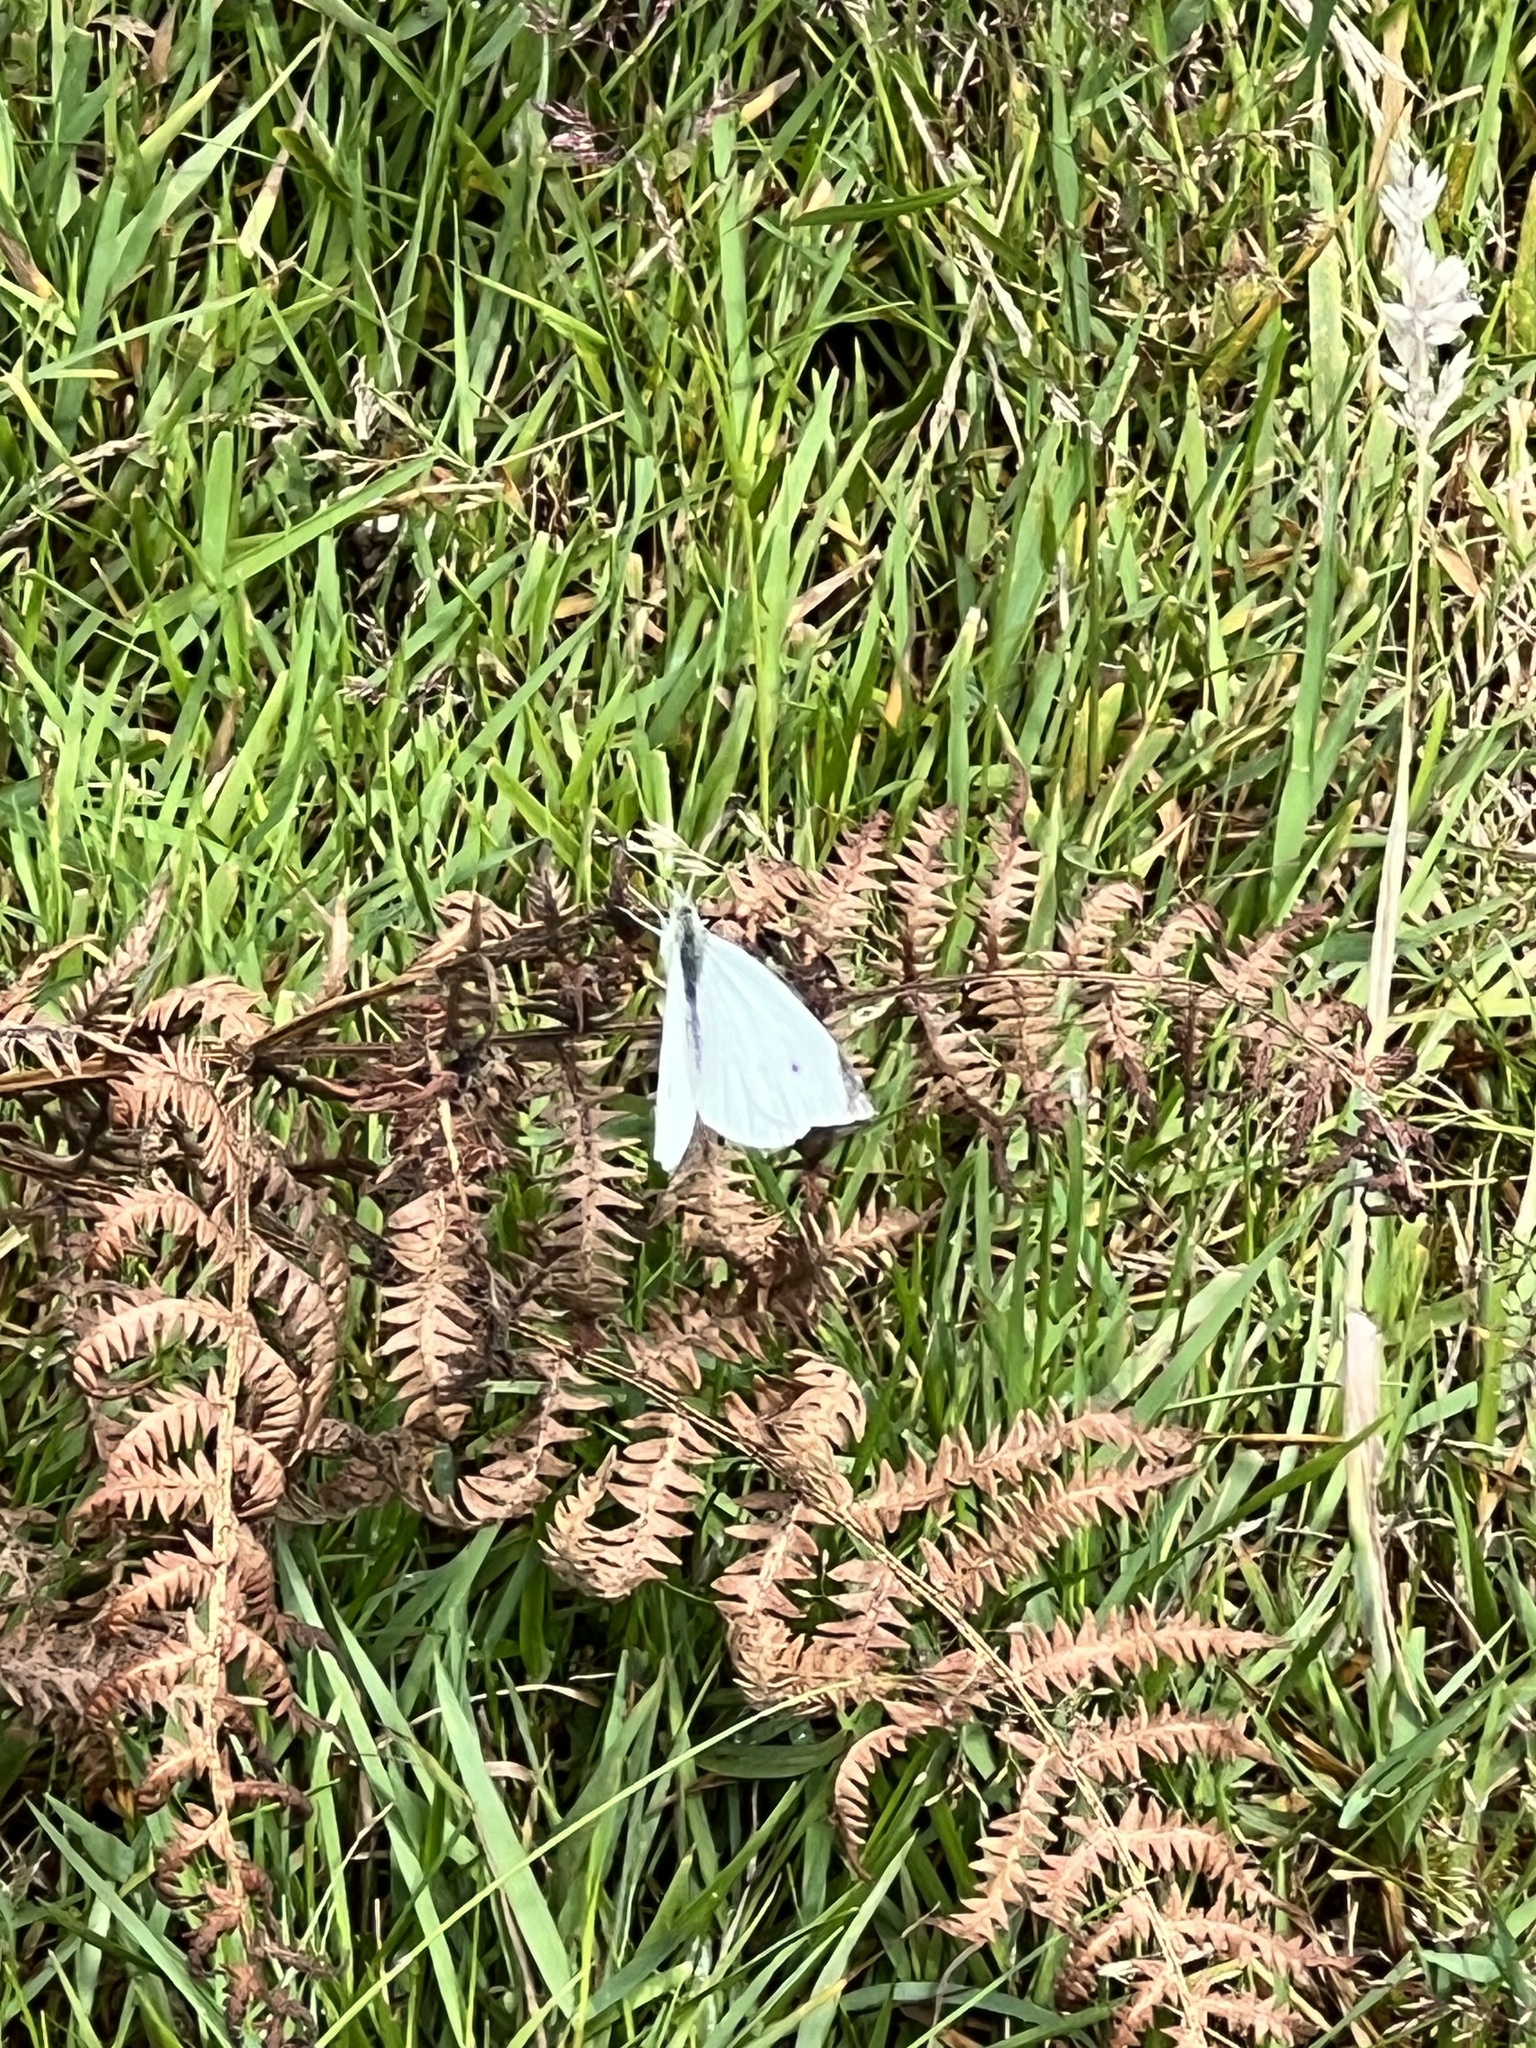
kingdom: Animalia
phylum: Arthropoda
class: Insecta
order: Lepidoptera
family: Pieridae
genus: Pieris
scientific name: Pieris rapae
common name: Small white
